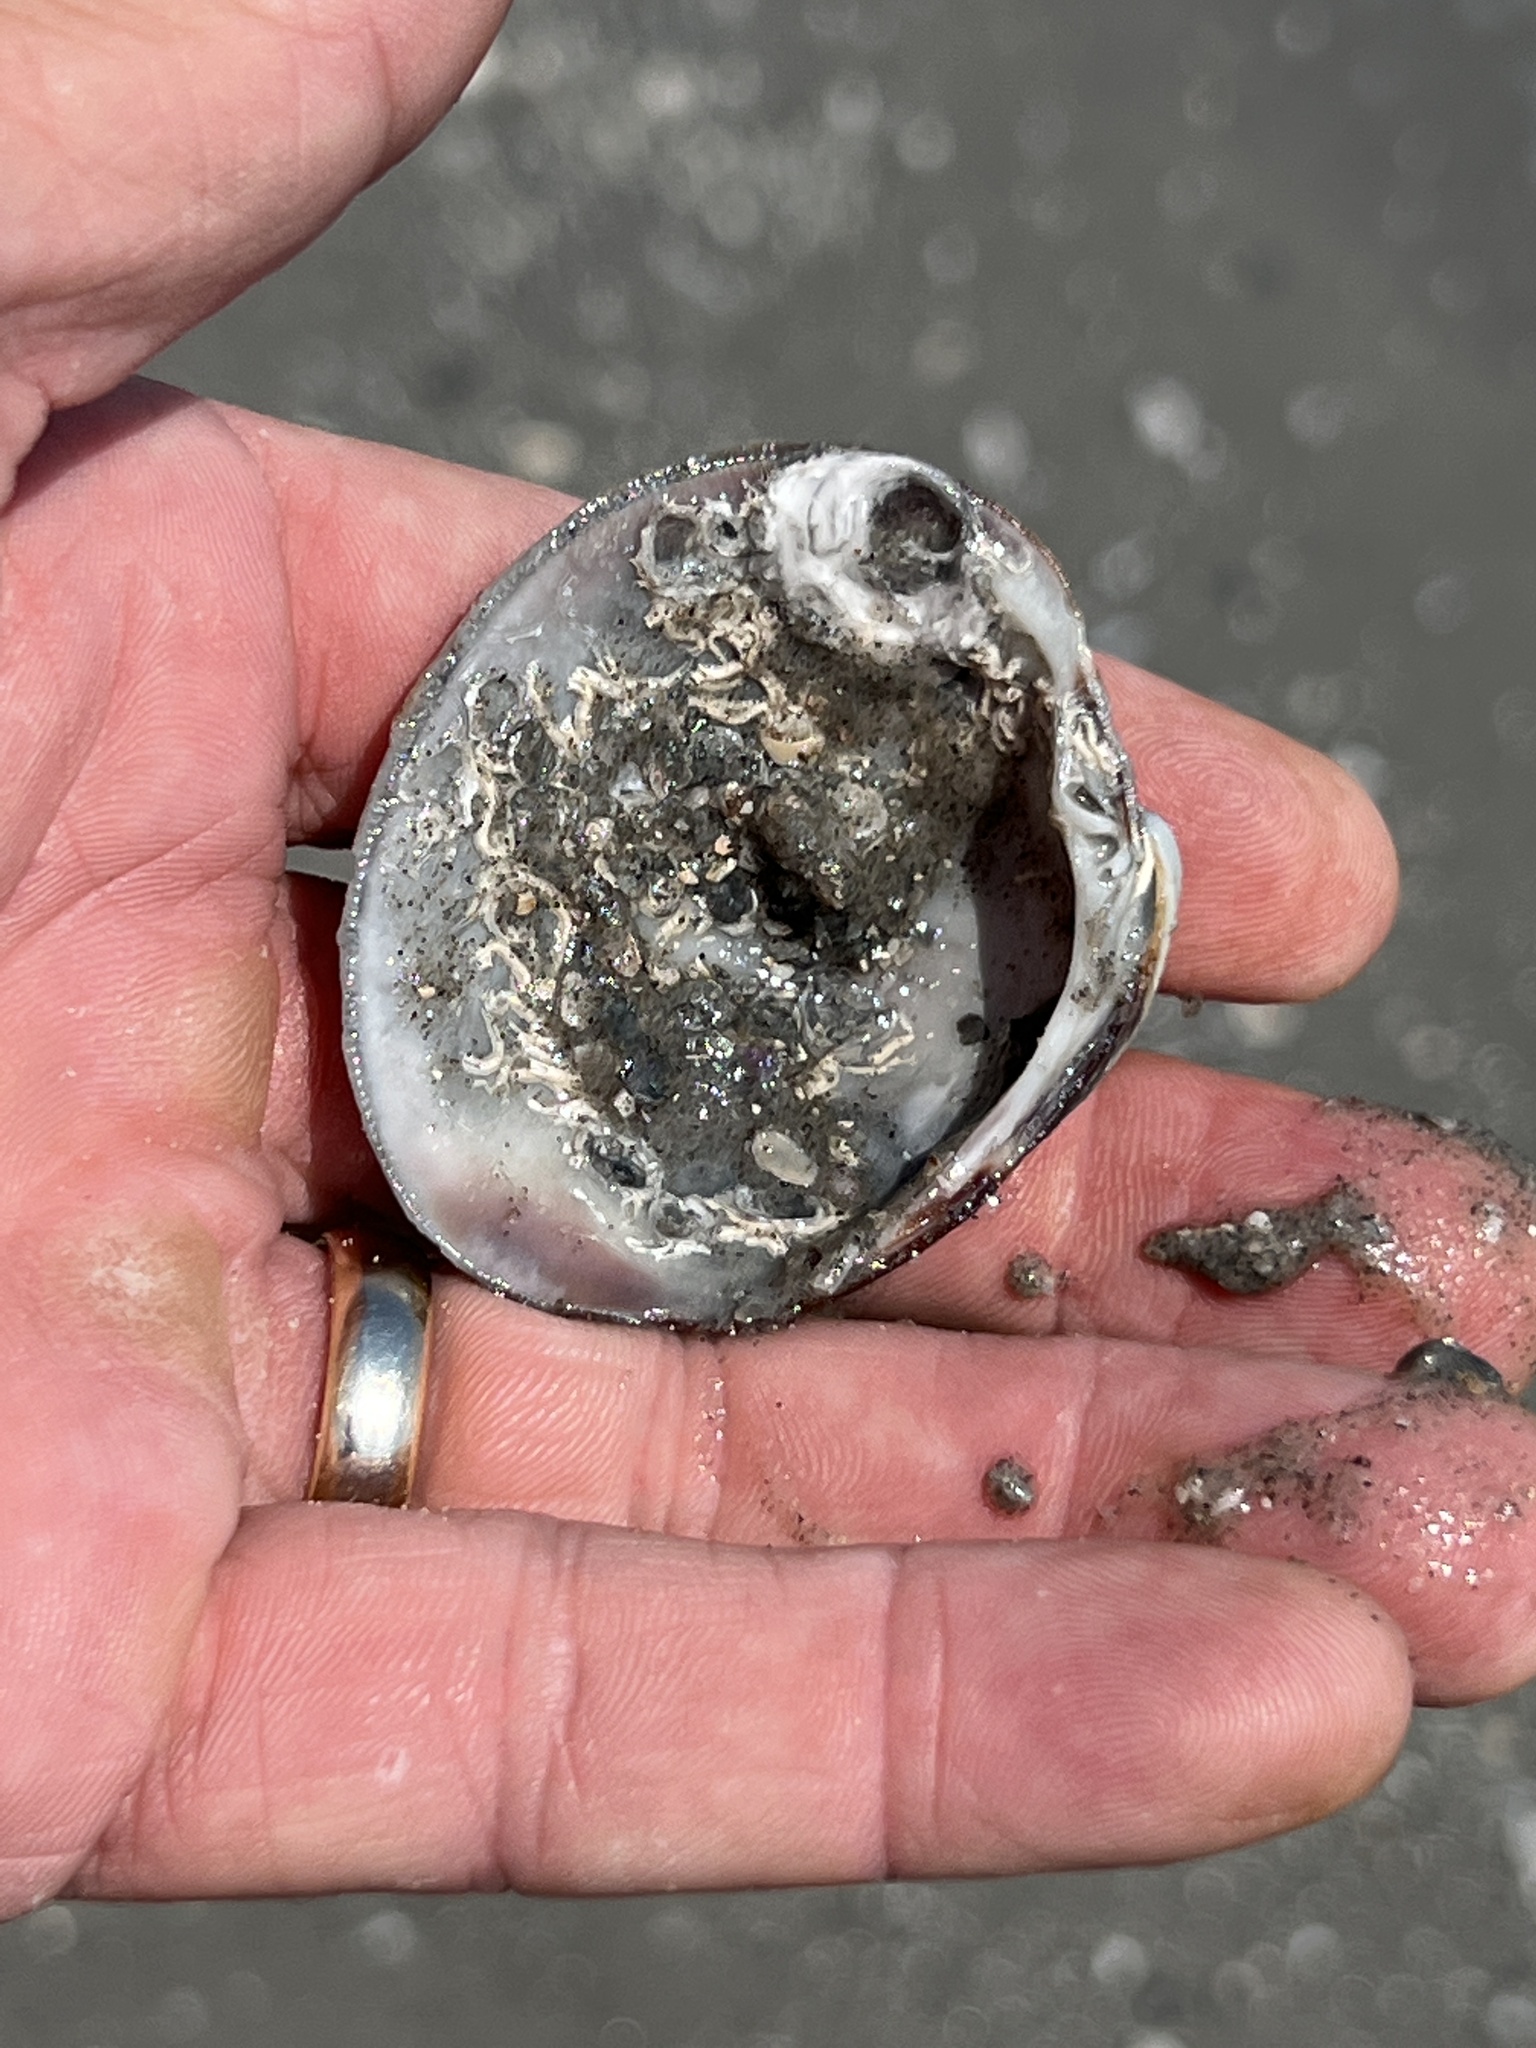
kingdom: Animalia
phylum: Mollusca
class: Bivalvia
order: Venerida
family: Veneridae
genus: Mercenaria
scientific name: Mercenaria campechiensis
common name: Südliche quahog-muschel
